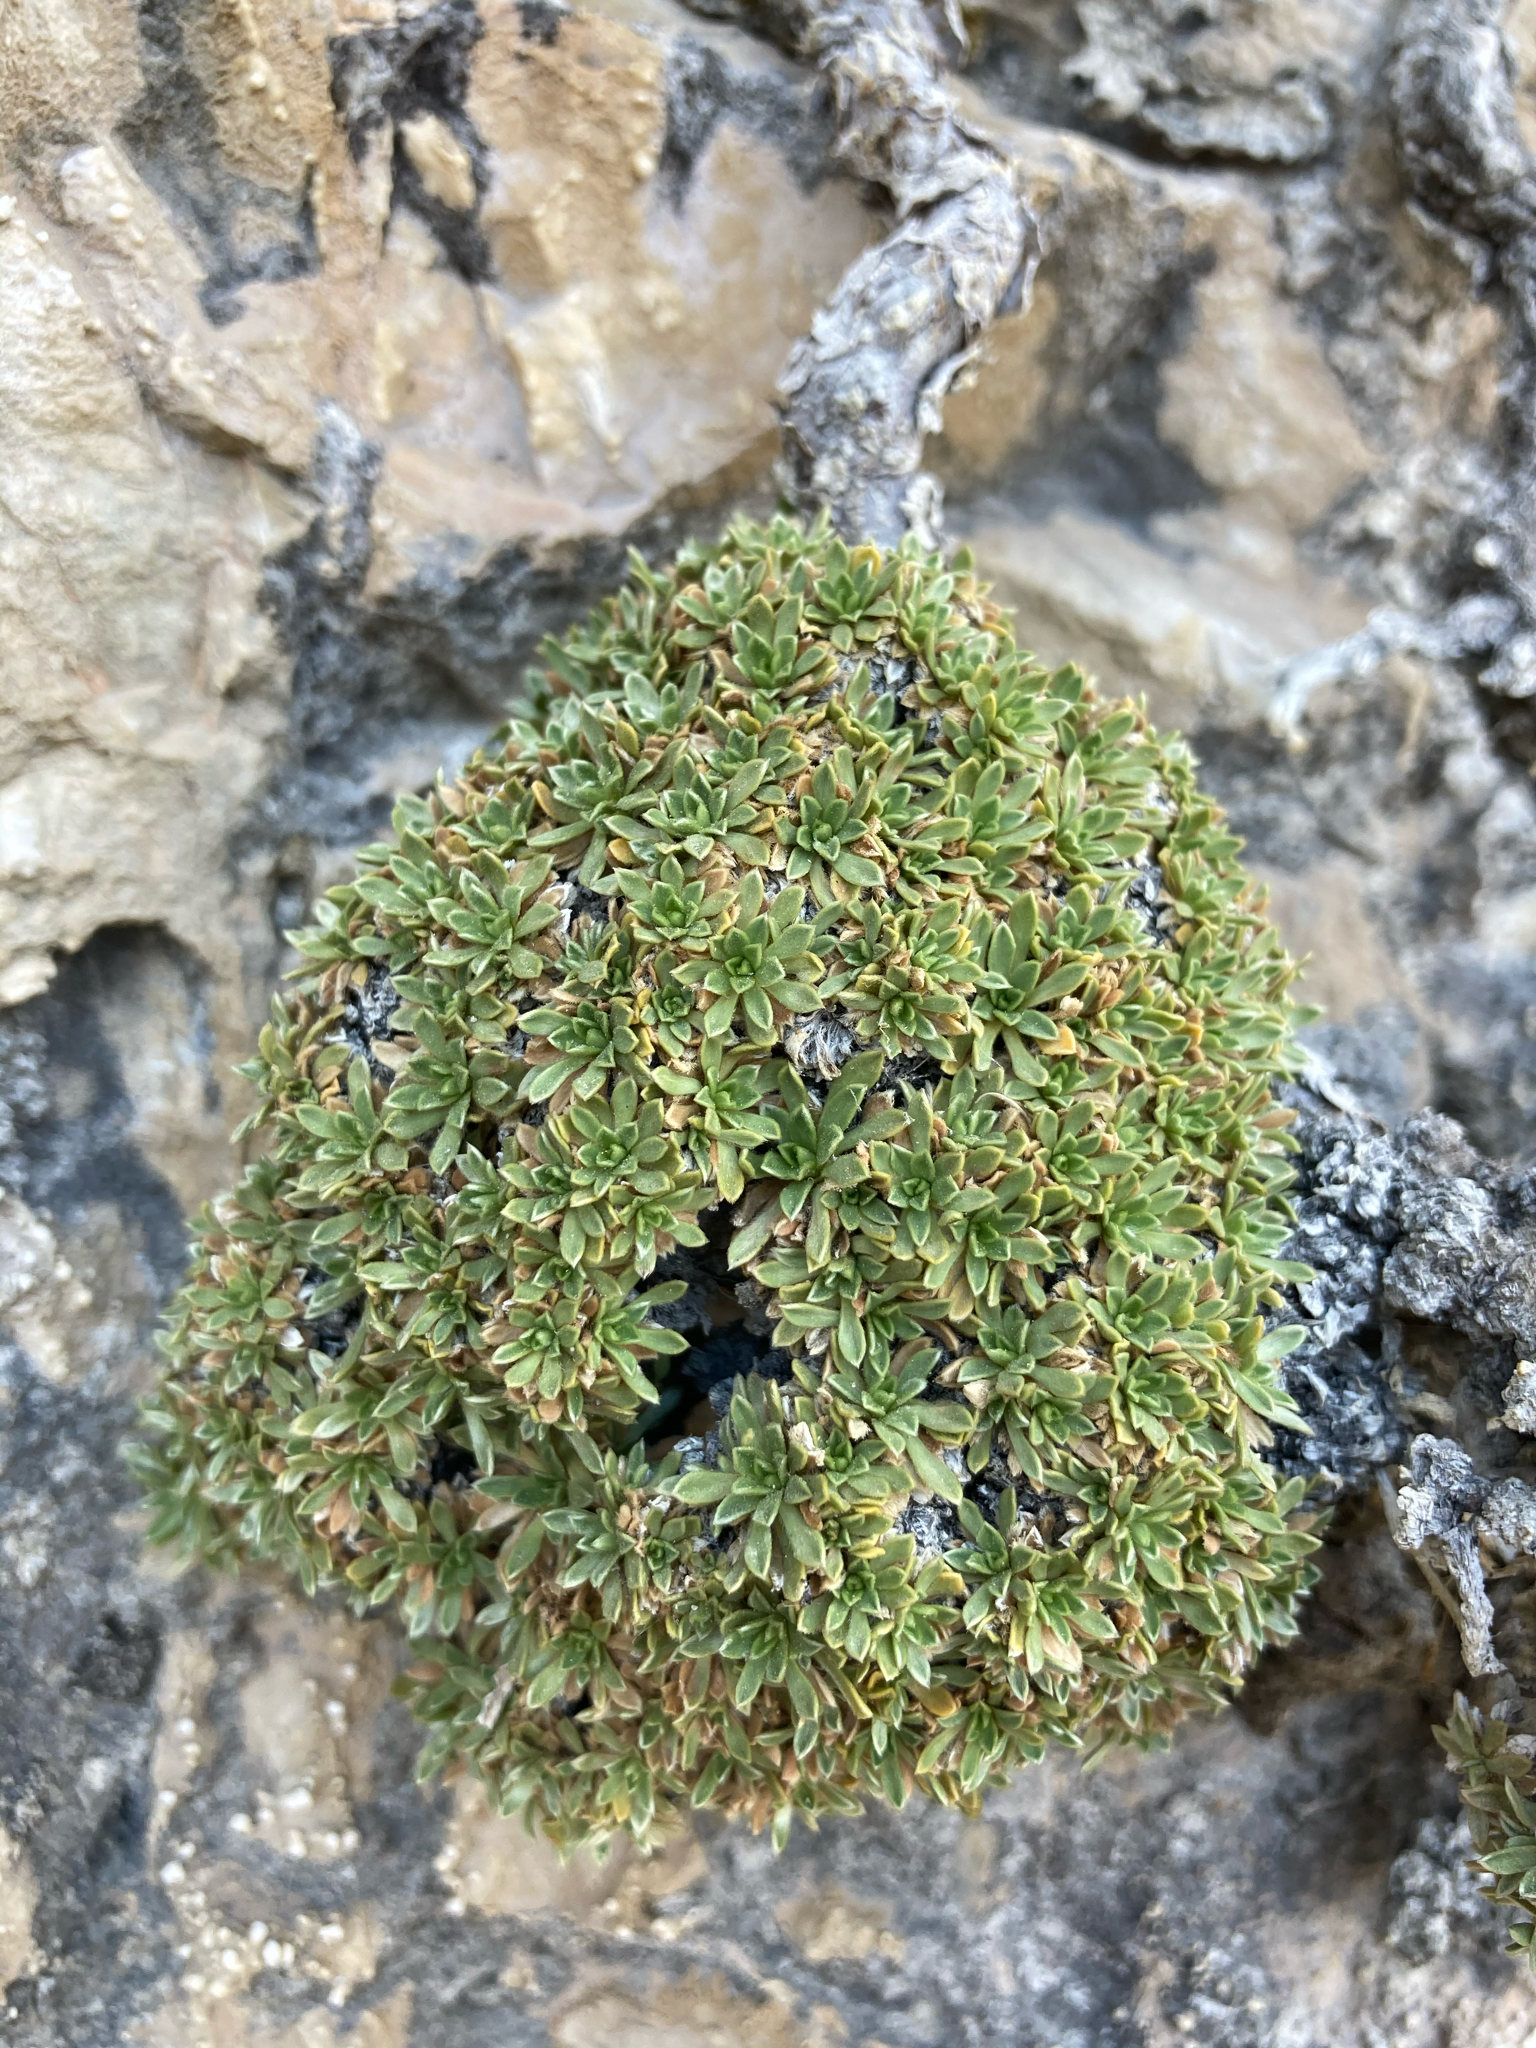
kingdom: Plantae
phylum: Tracheophyta
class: Magnoliopsida
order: Rosales
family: Rosaceae
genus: Petrophytum
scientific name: Petrophytum caespitosum
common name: Mat rockspirea
